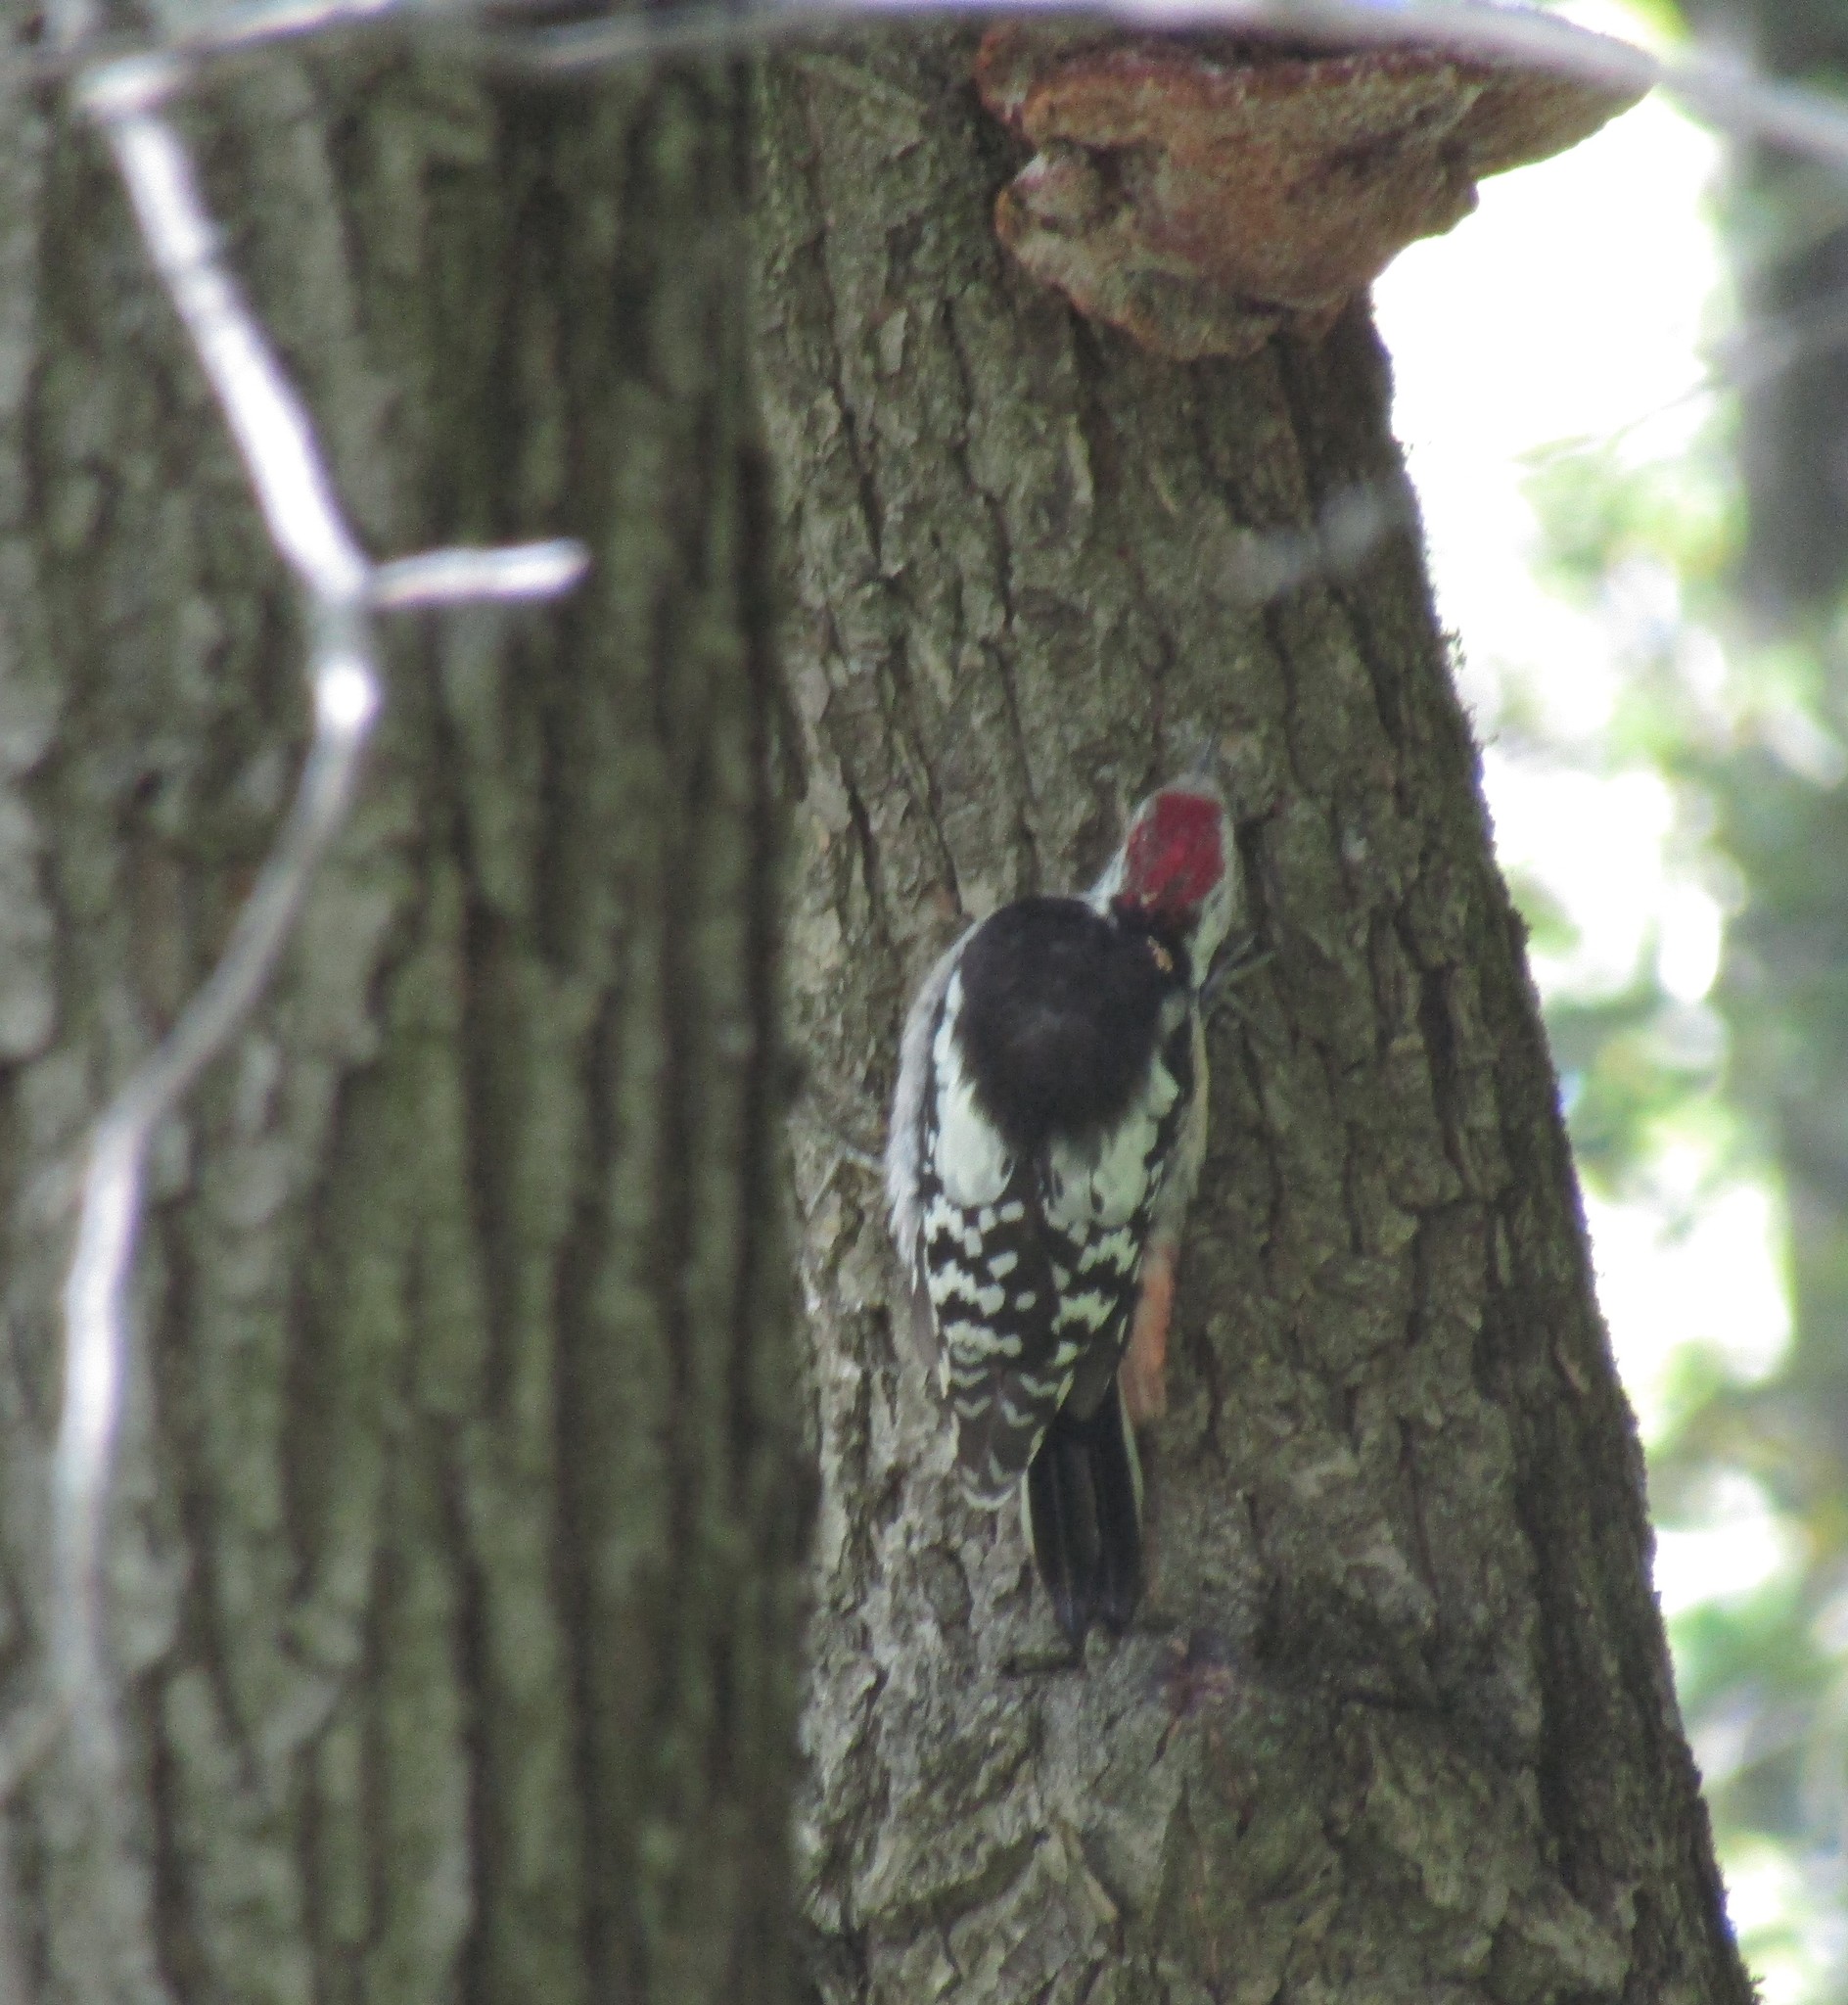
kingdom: Animalia
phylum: Chordata
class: Aves
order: Piciformes
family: Picidae
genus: Dendrocoptes
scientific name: Dendrocoptes medius
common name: Middle spotted woodpecker
